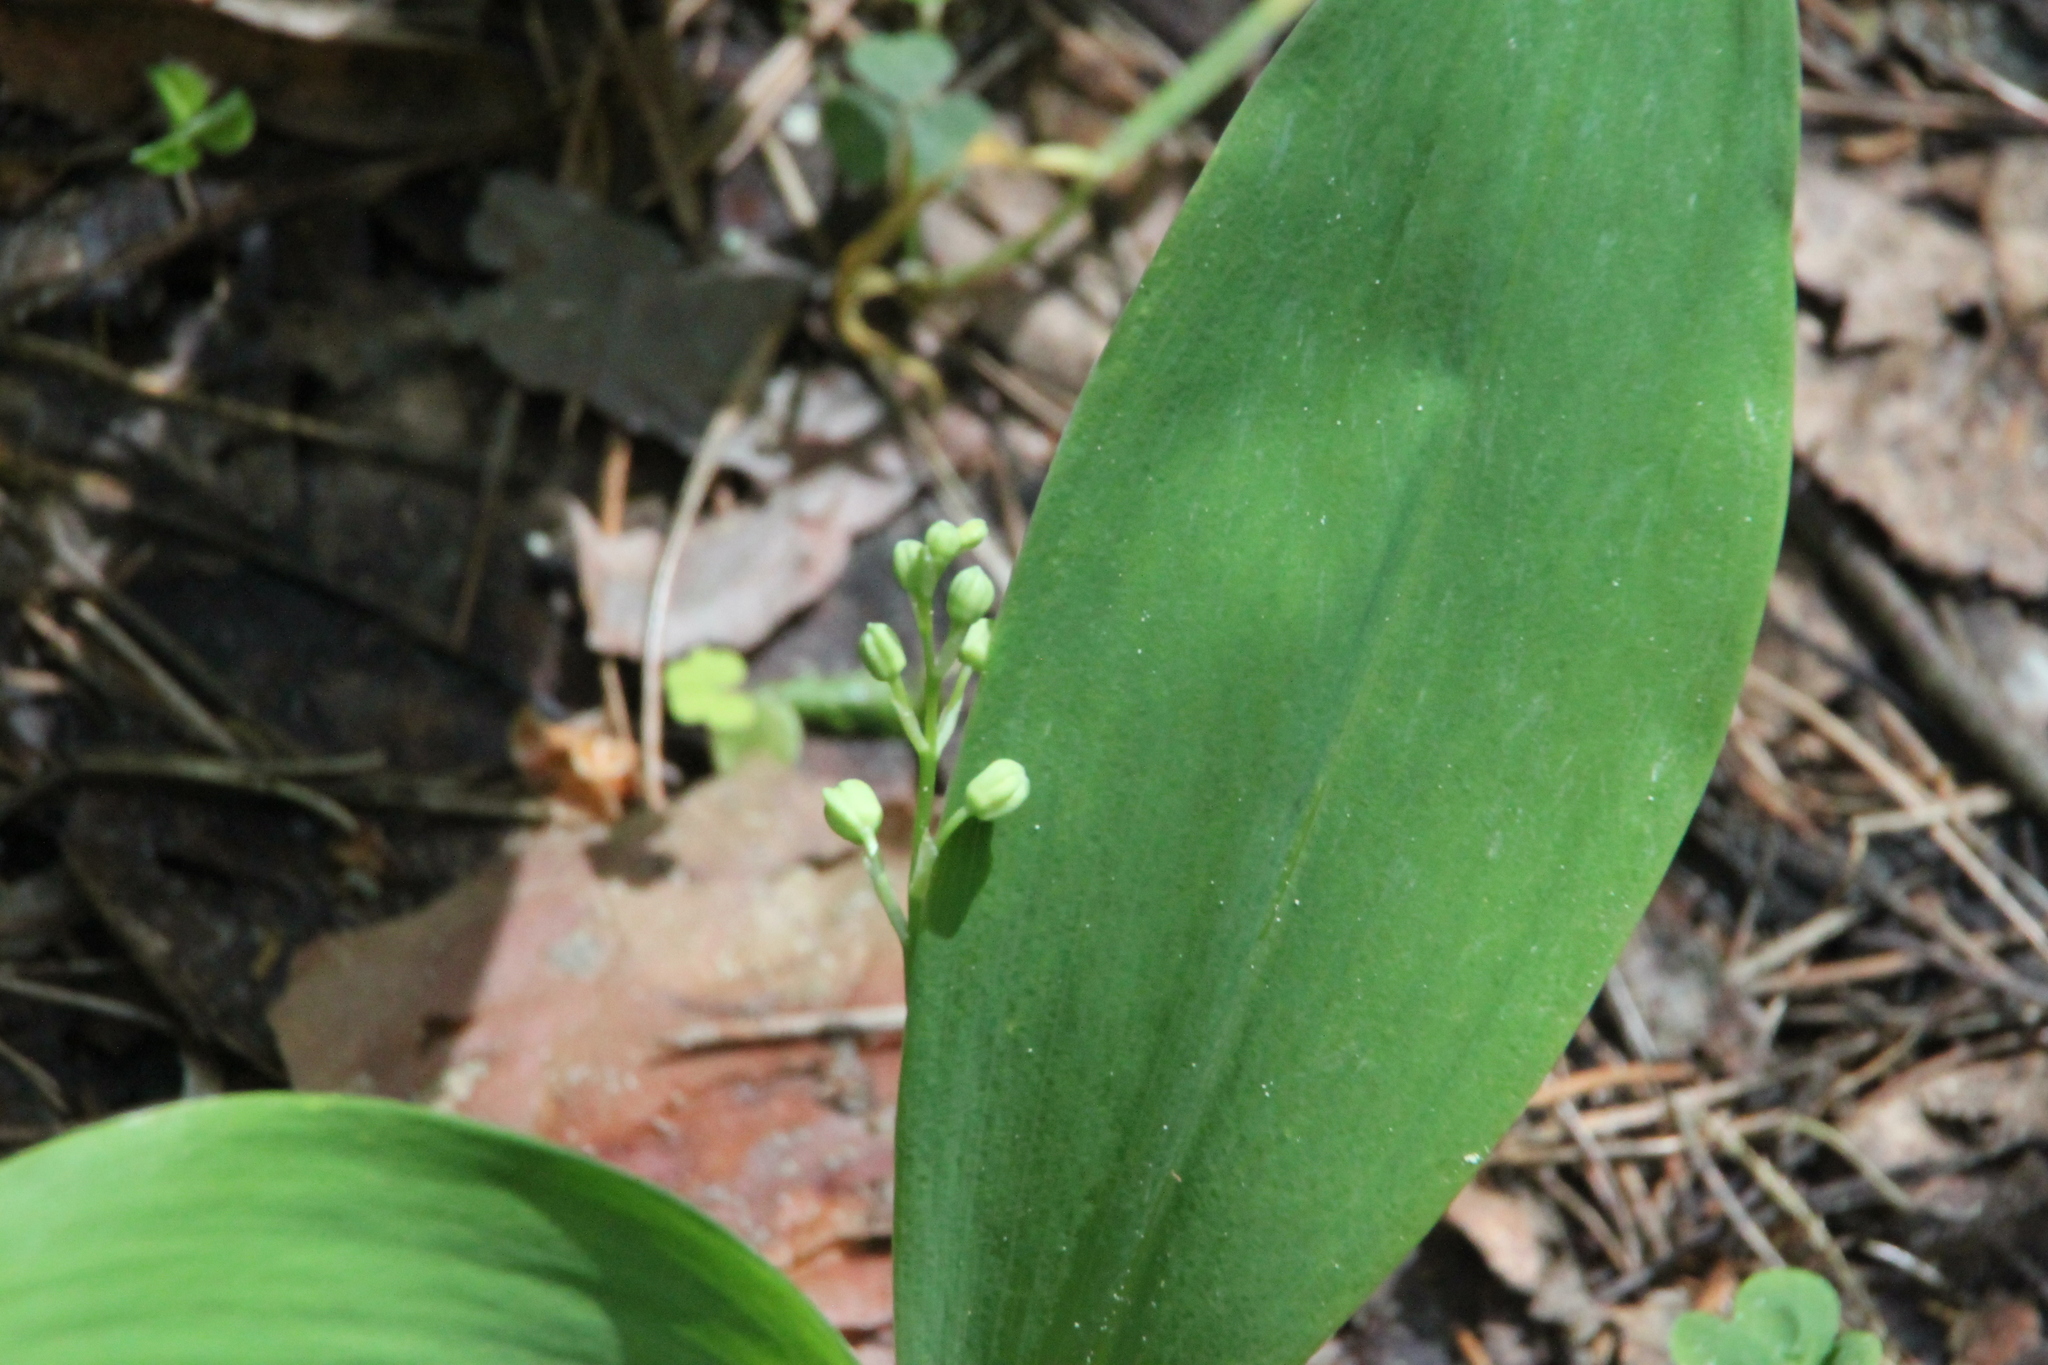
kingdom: Plantae
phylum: Tracheophyta
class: Liliopsida
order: Asparagales
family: Asparagaceae
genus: Convallaria
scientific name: Convallaria majalis
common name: Lily-of-the-valley
